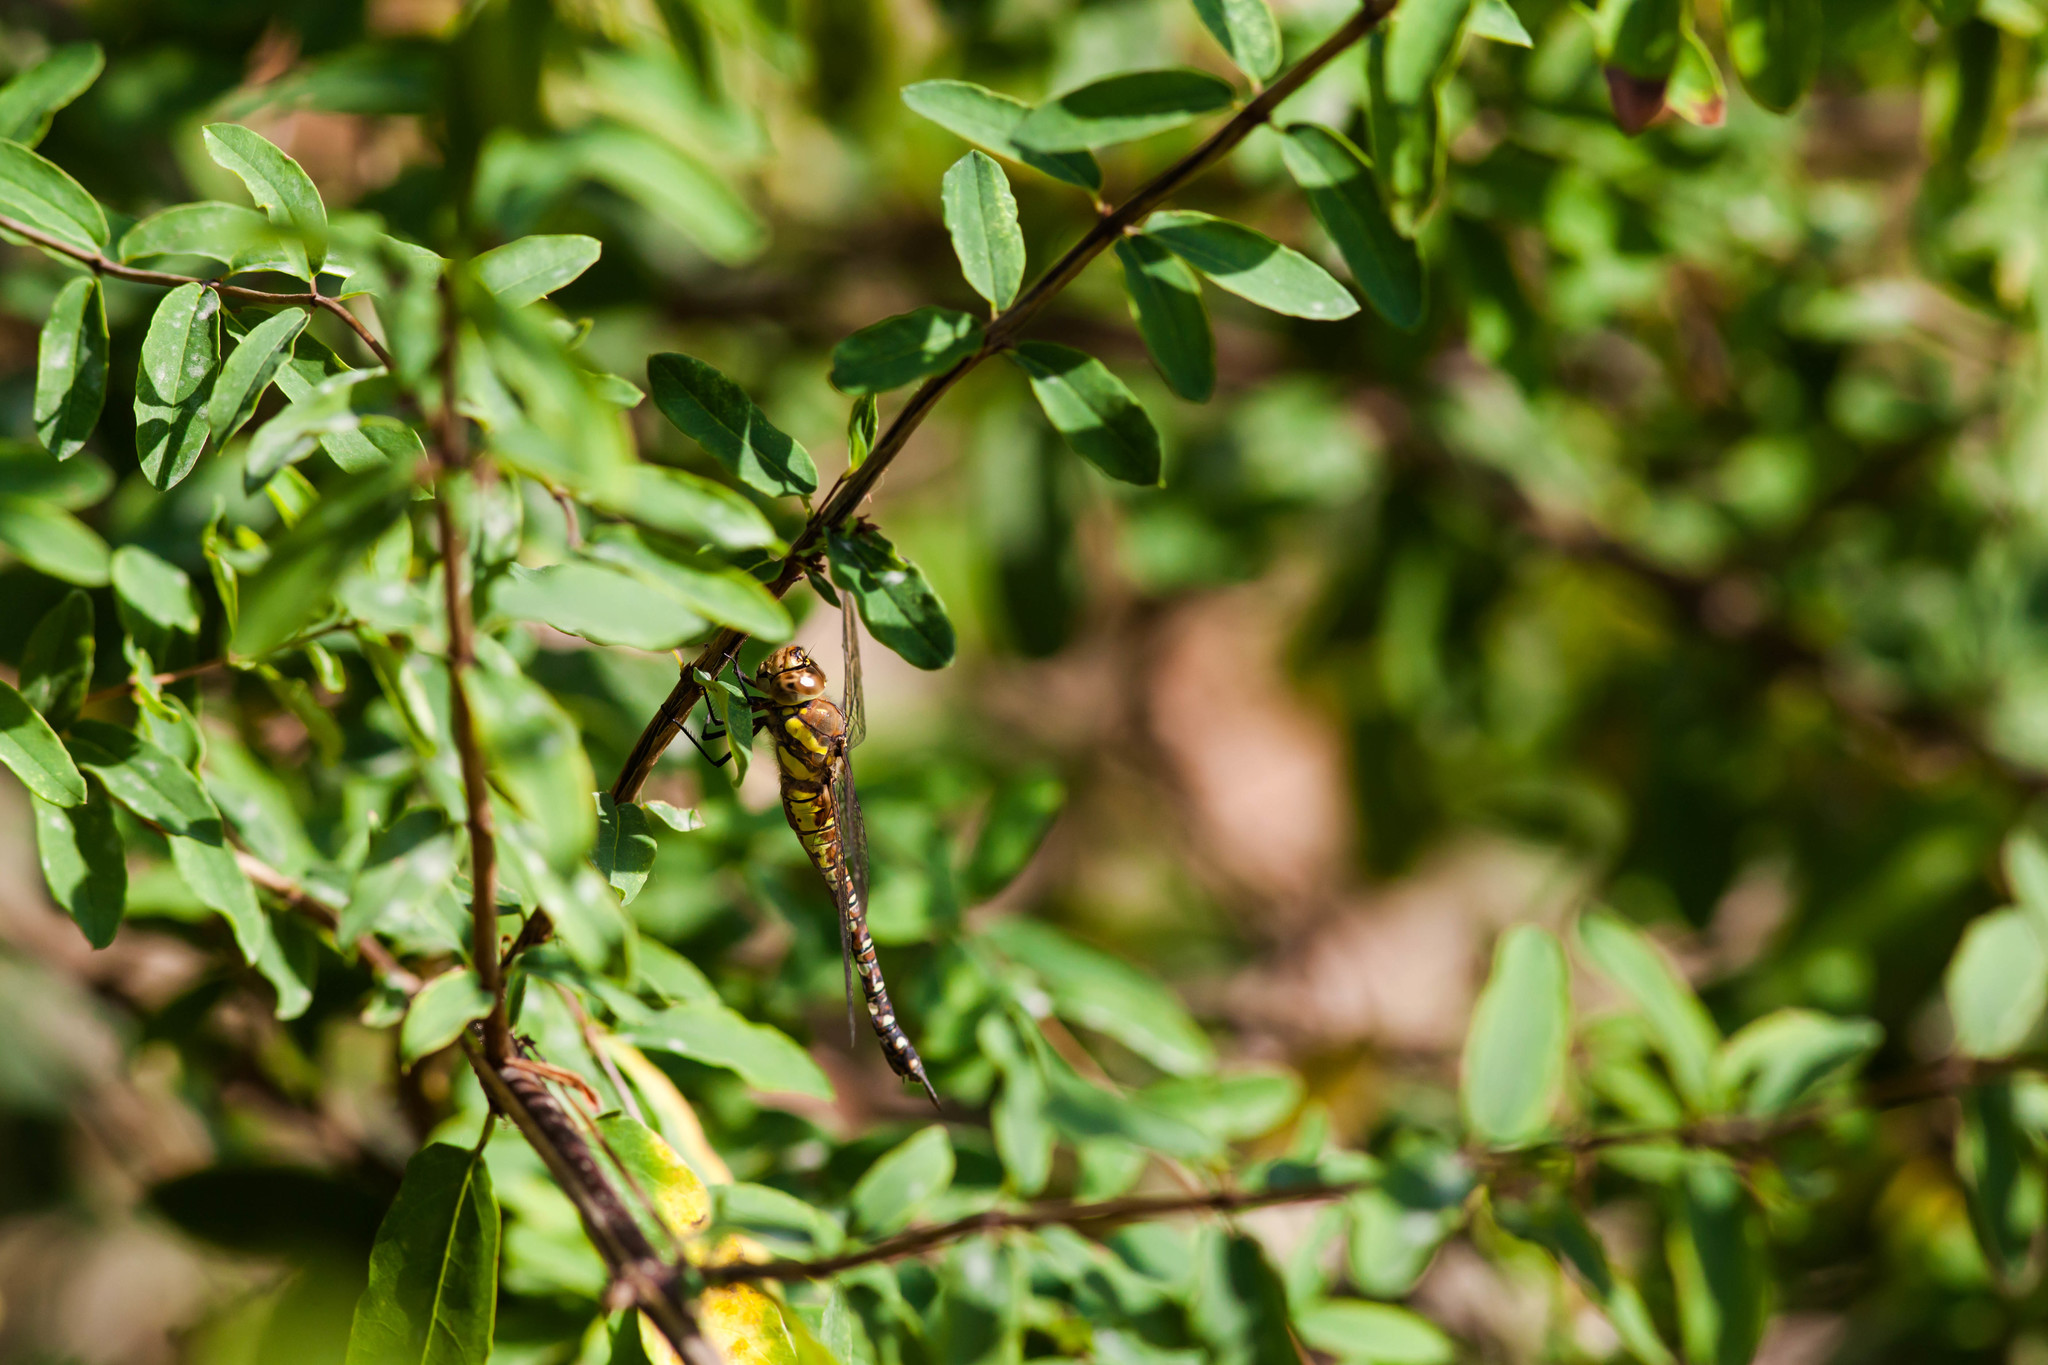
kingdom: Animalia
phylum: Arthropoda
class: Insecta
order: Odonata
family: Aeshnidae
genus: Aeshna
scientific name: Aeshna mixta
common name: Migrant hawker
